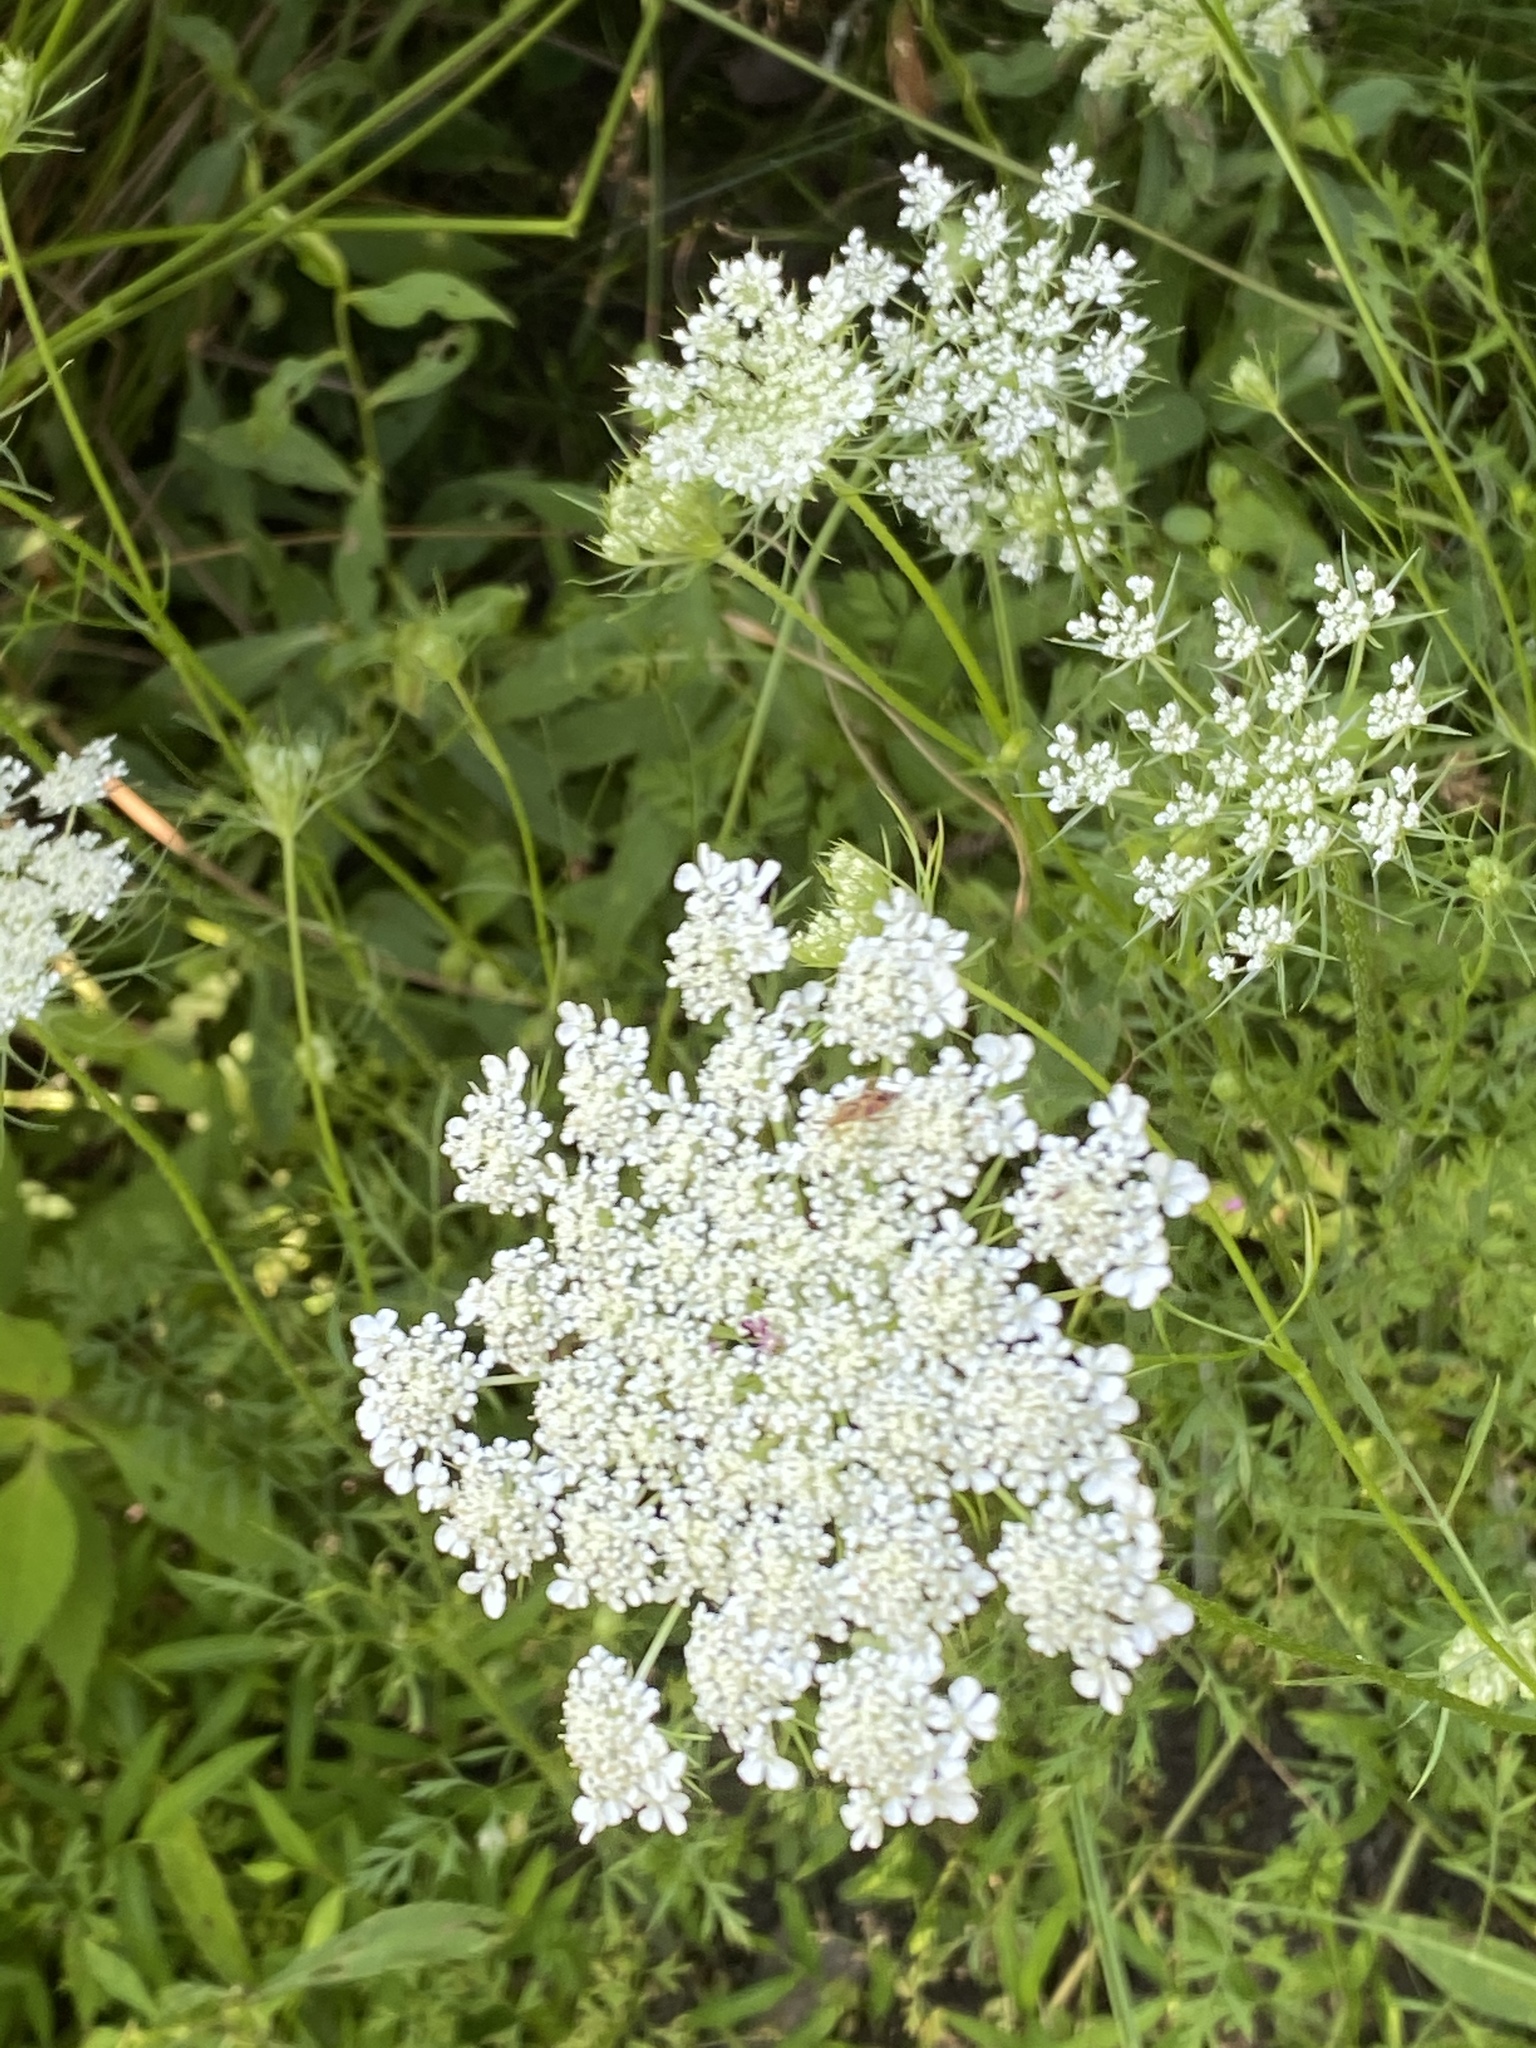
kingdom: Plantae
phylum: Tracheophyta
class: Magnoliopsida
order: Apiales
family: Apiaceae
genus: Daucus
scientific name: Daucus carota
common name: Wild carrot
